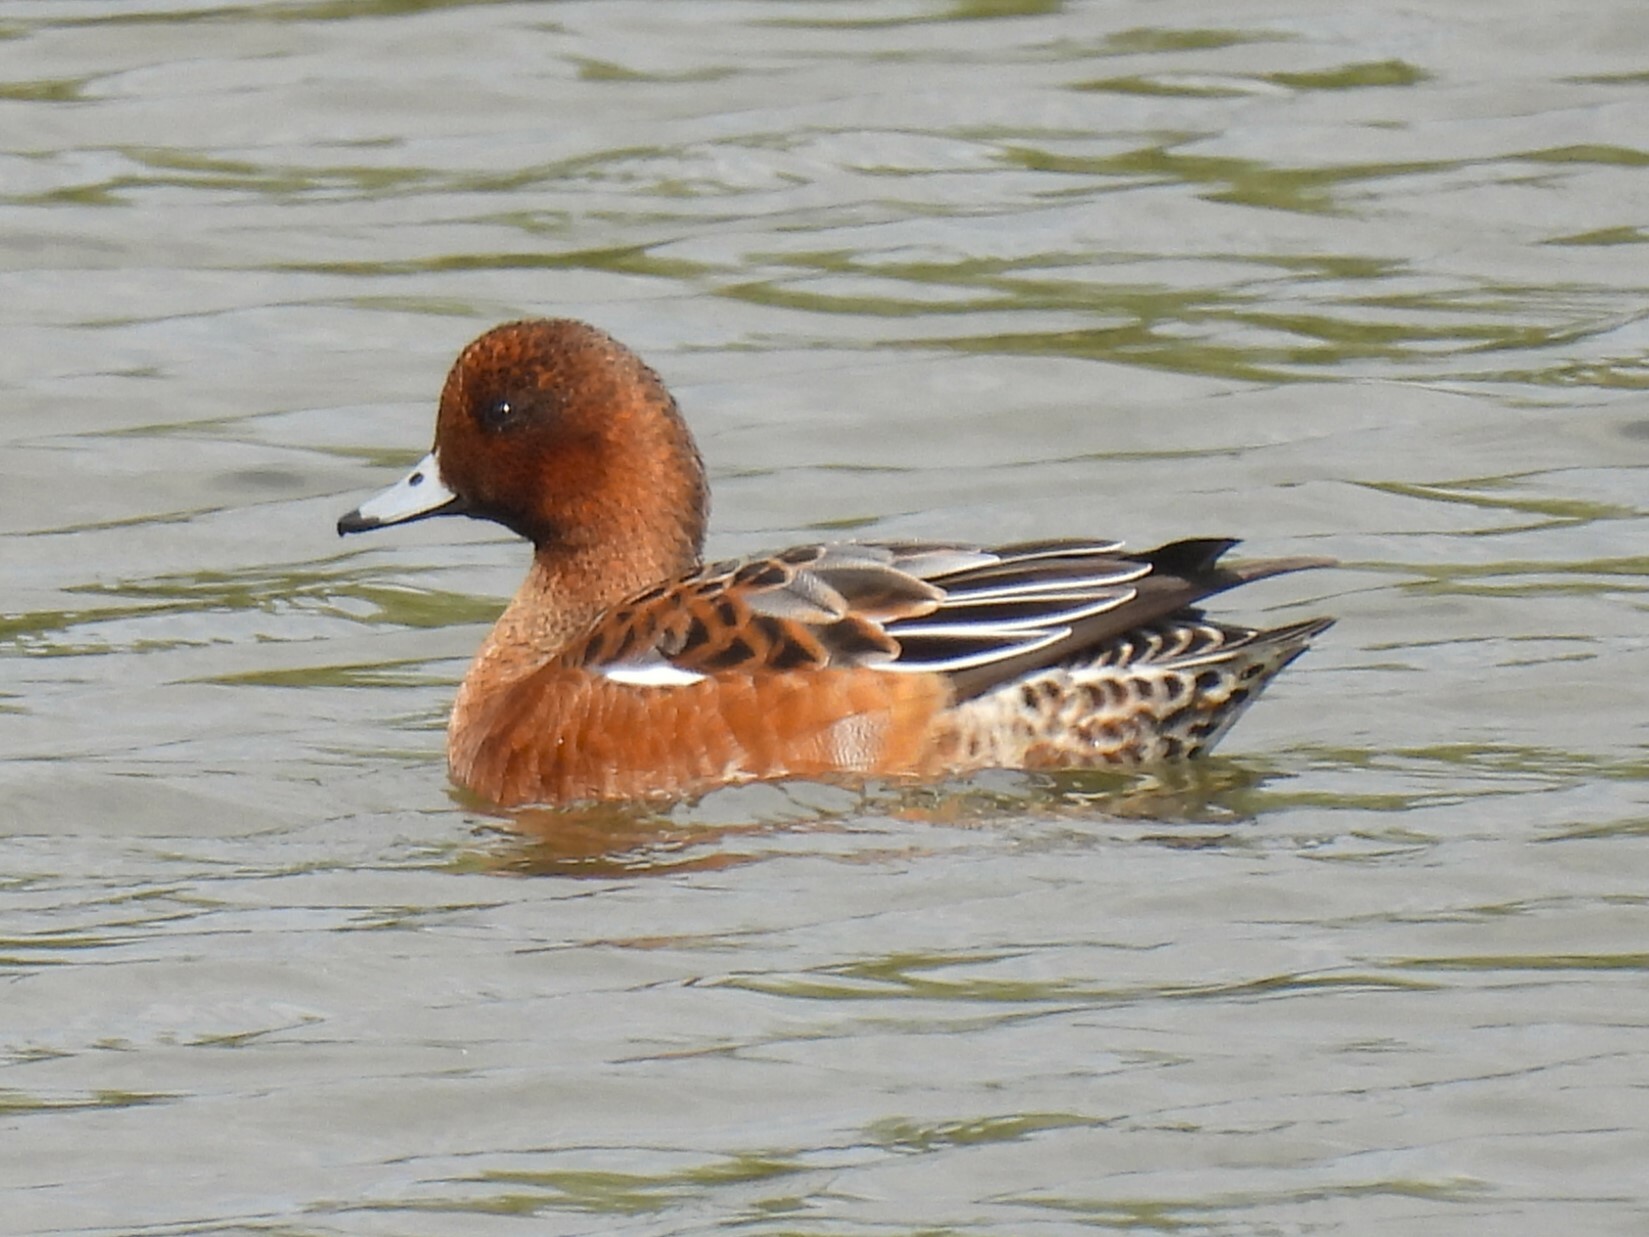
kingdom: Animalia
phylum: Chordata
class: Aves
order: Anseriformes
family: Anatidae
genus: Mareca
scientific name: Mareca penelope
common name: Eurasian wigeon
